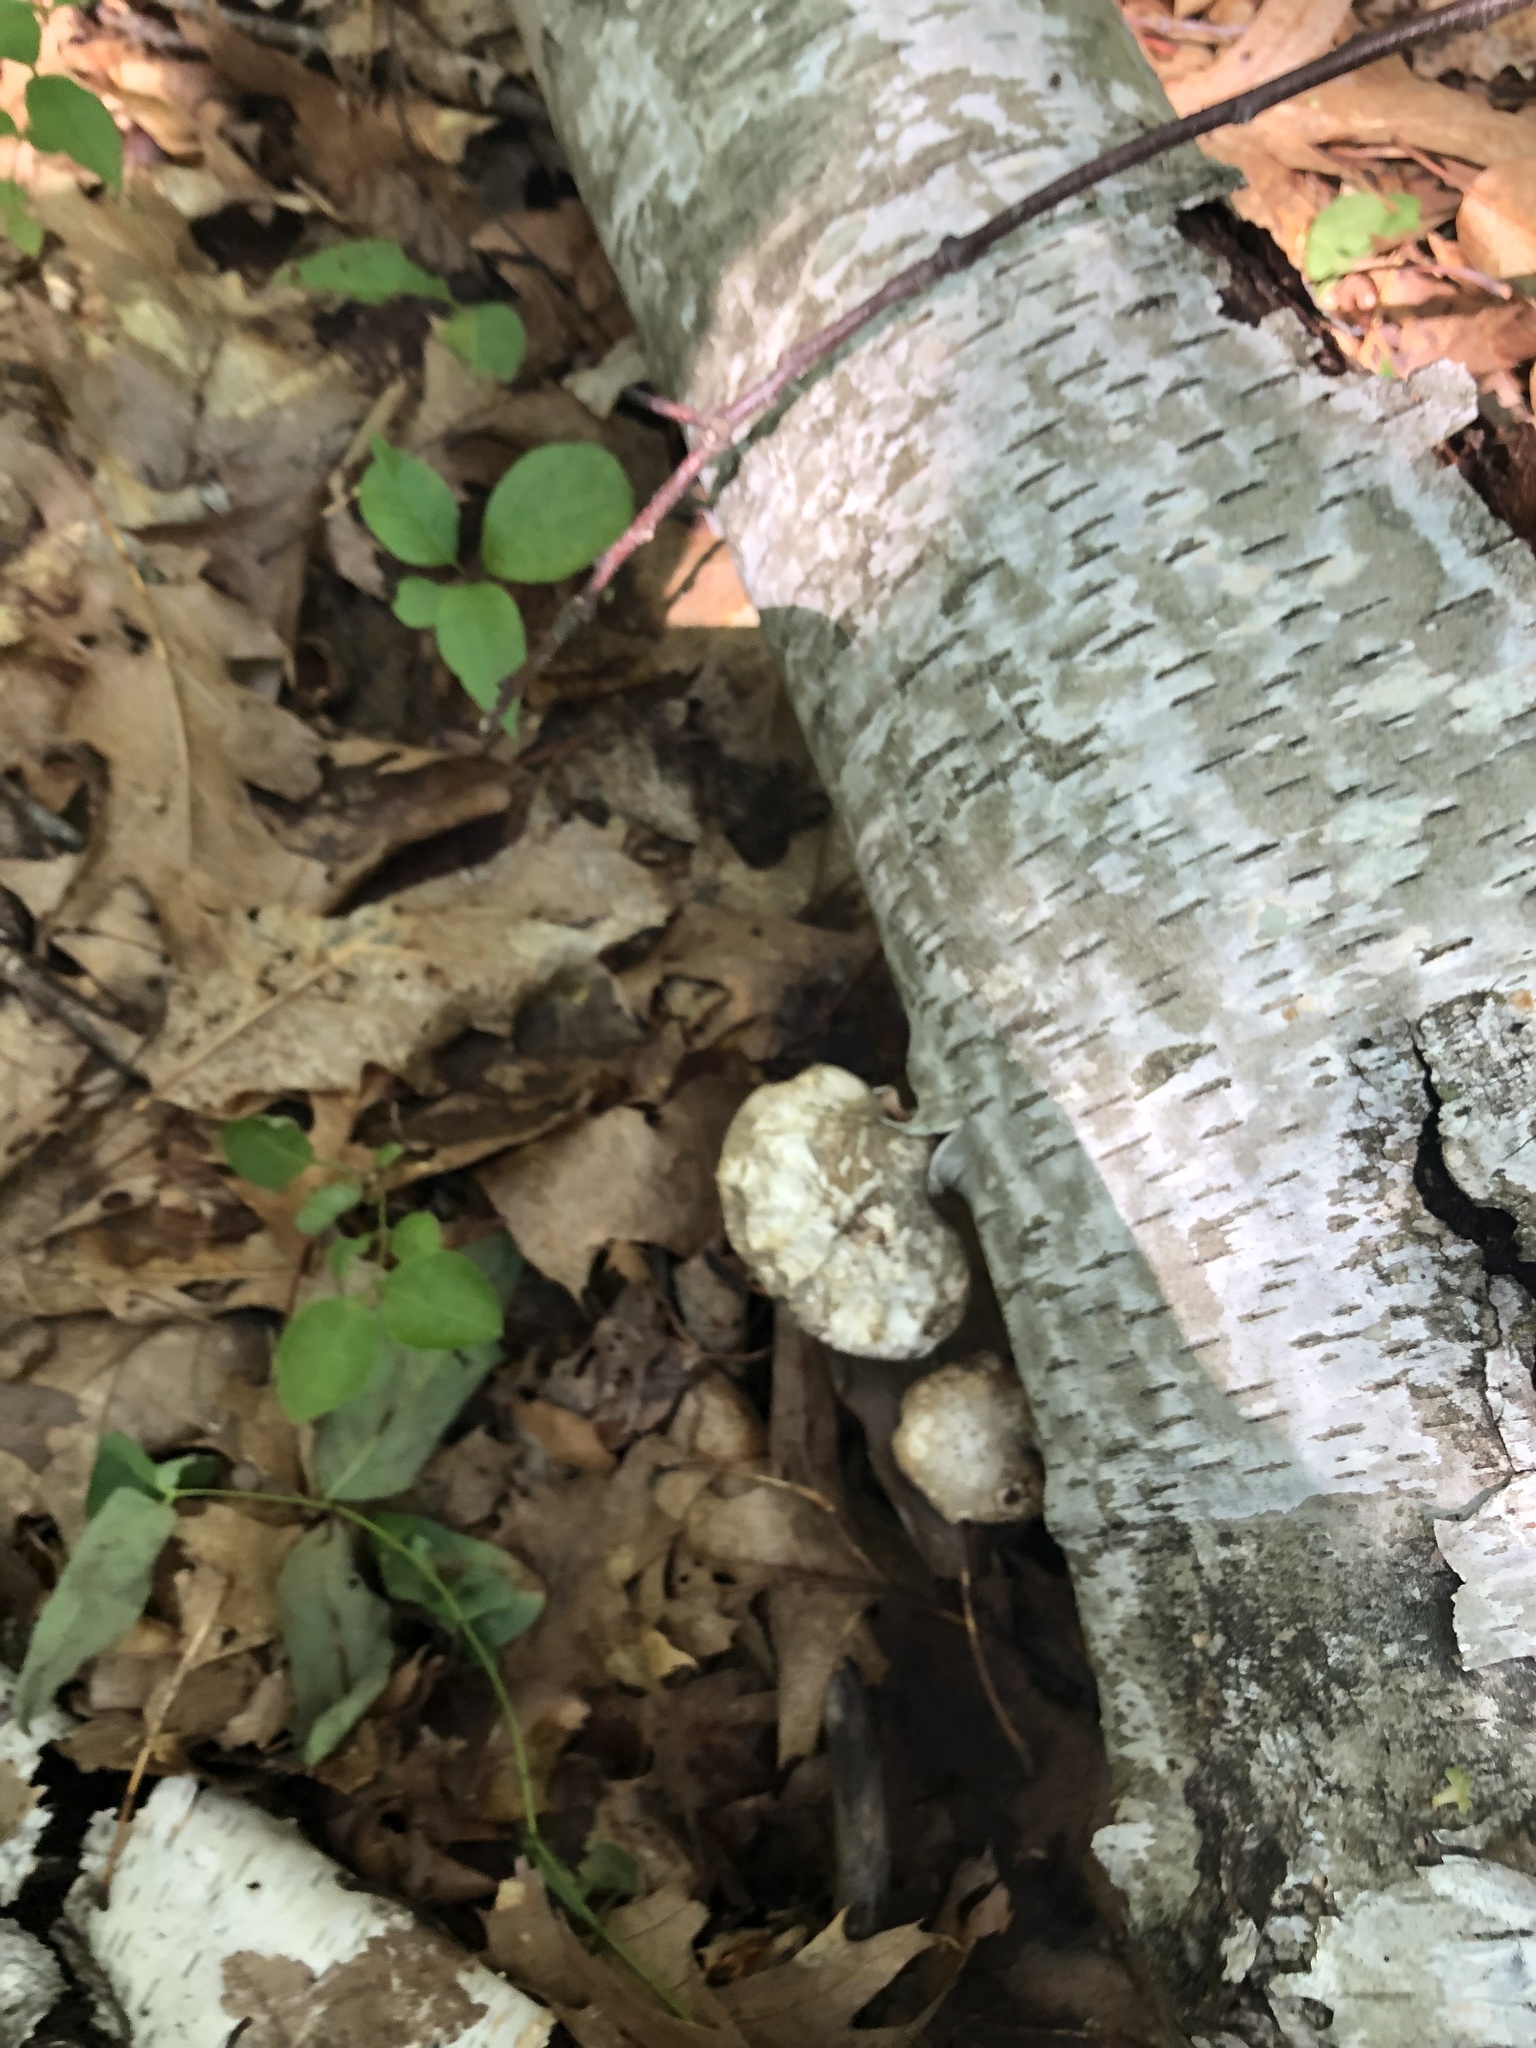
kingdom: Fungi
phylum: Basidiomycota
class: Agaricomycetes
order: Polyporales
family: Fomitopsidaceae
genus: Fomitopsis
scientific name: Fomitopsis betulina
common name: Birch polypore
